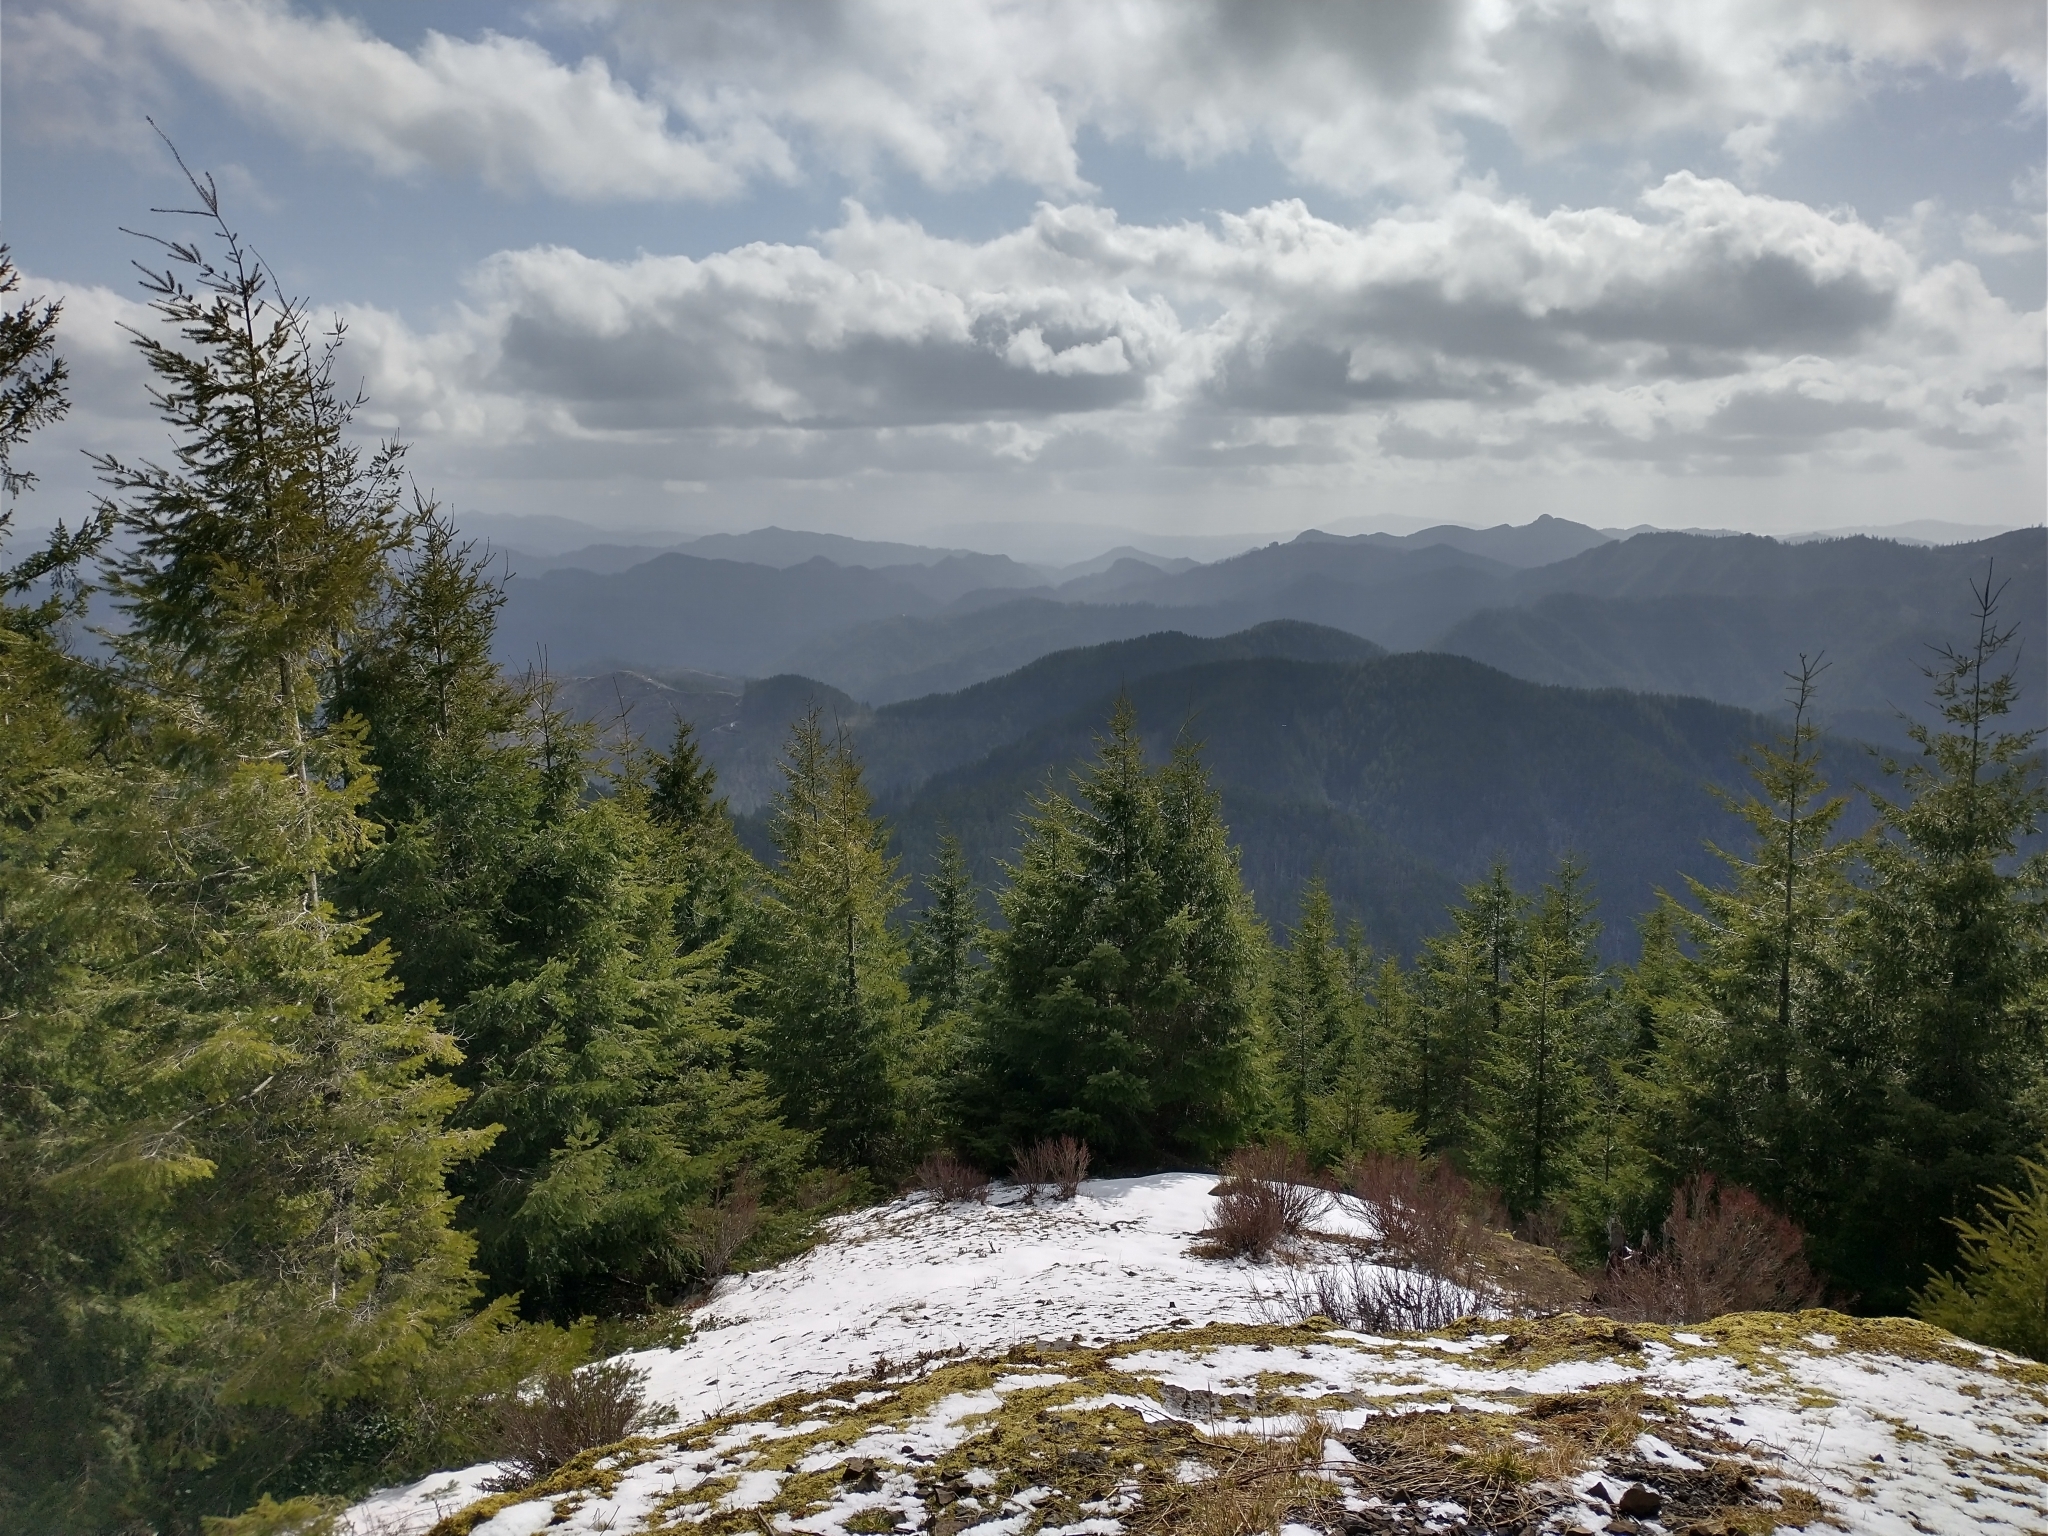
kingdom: Plantae
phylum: Tracheophyta
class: Pinopsida
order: Pinales
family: Pinaceae
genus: Pseudotsuga
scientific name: Pseudotsuga menziesii
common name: Douglas fir
